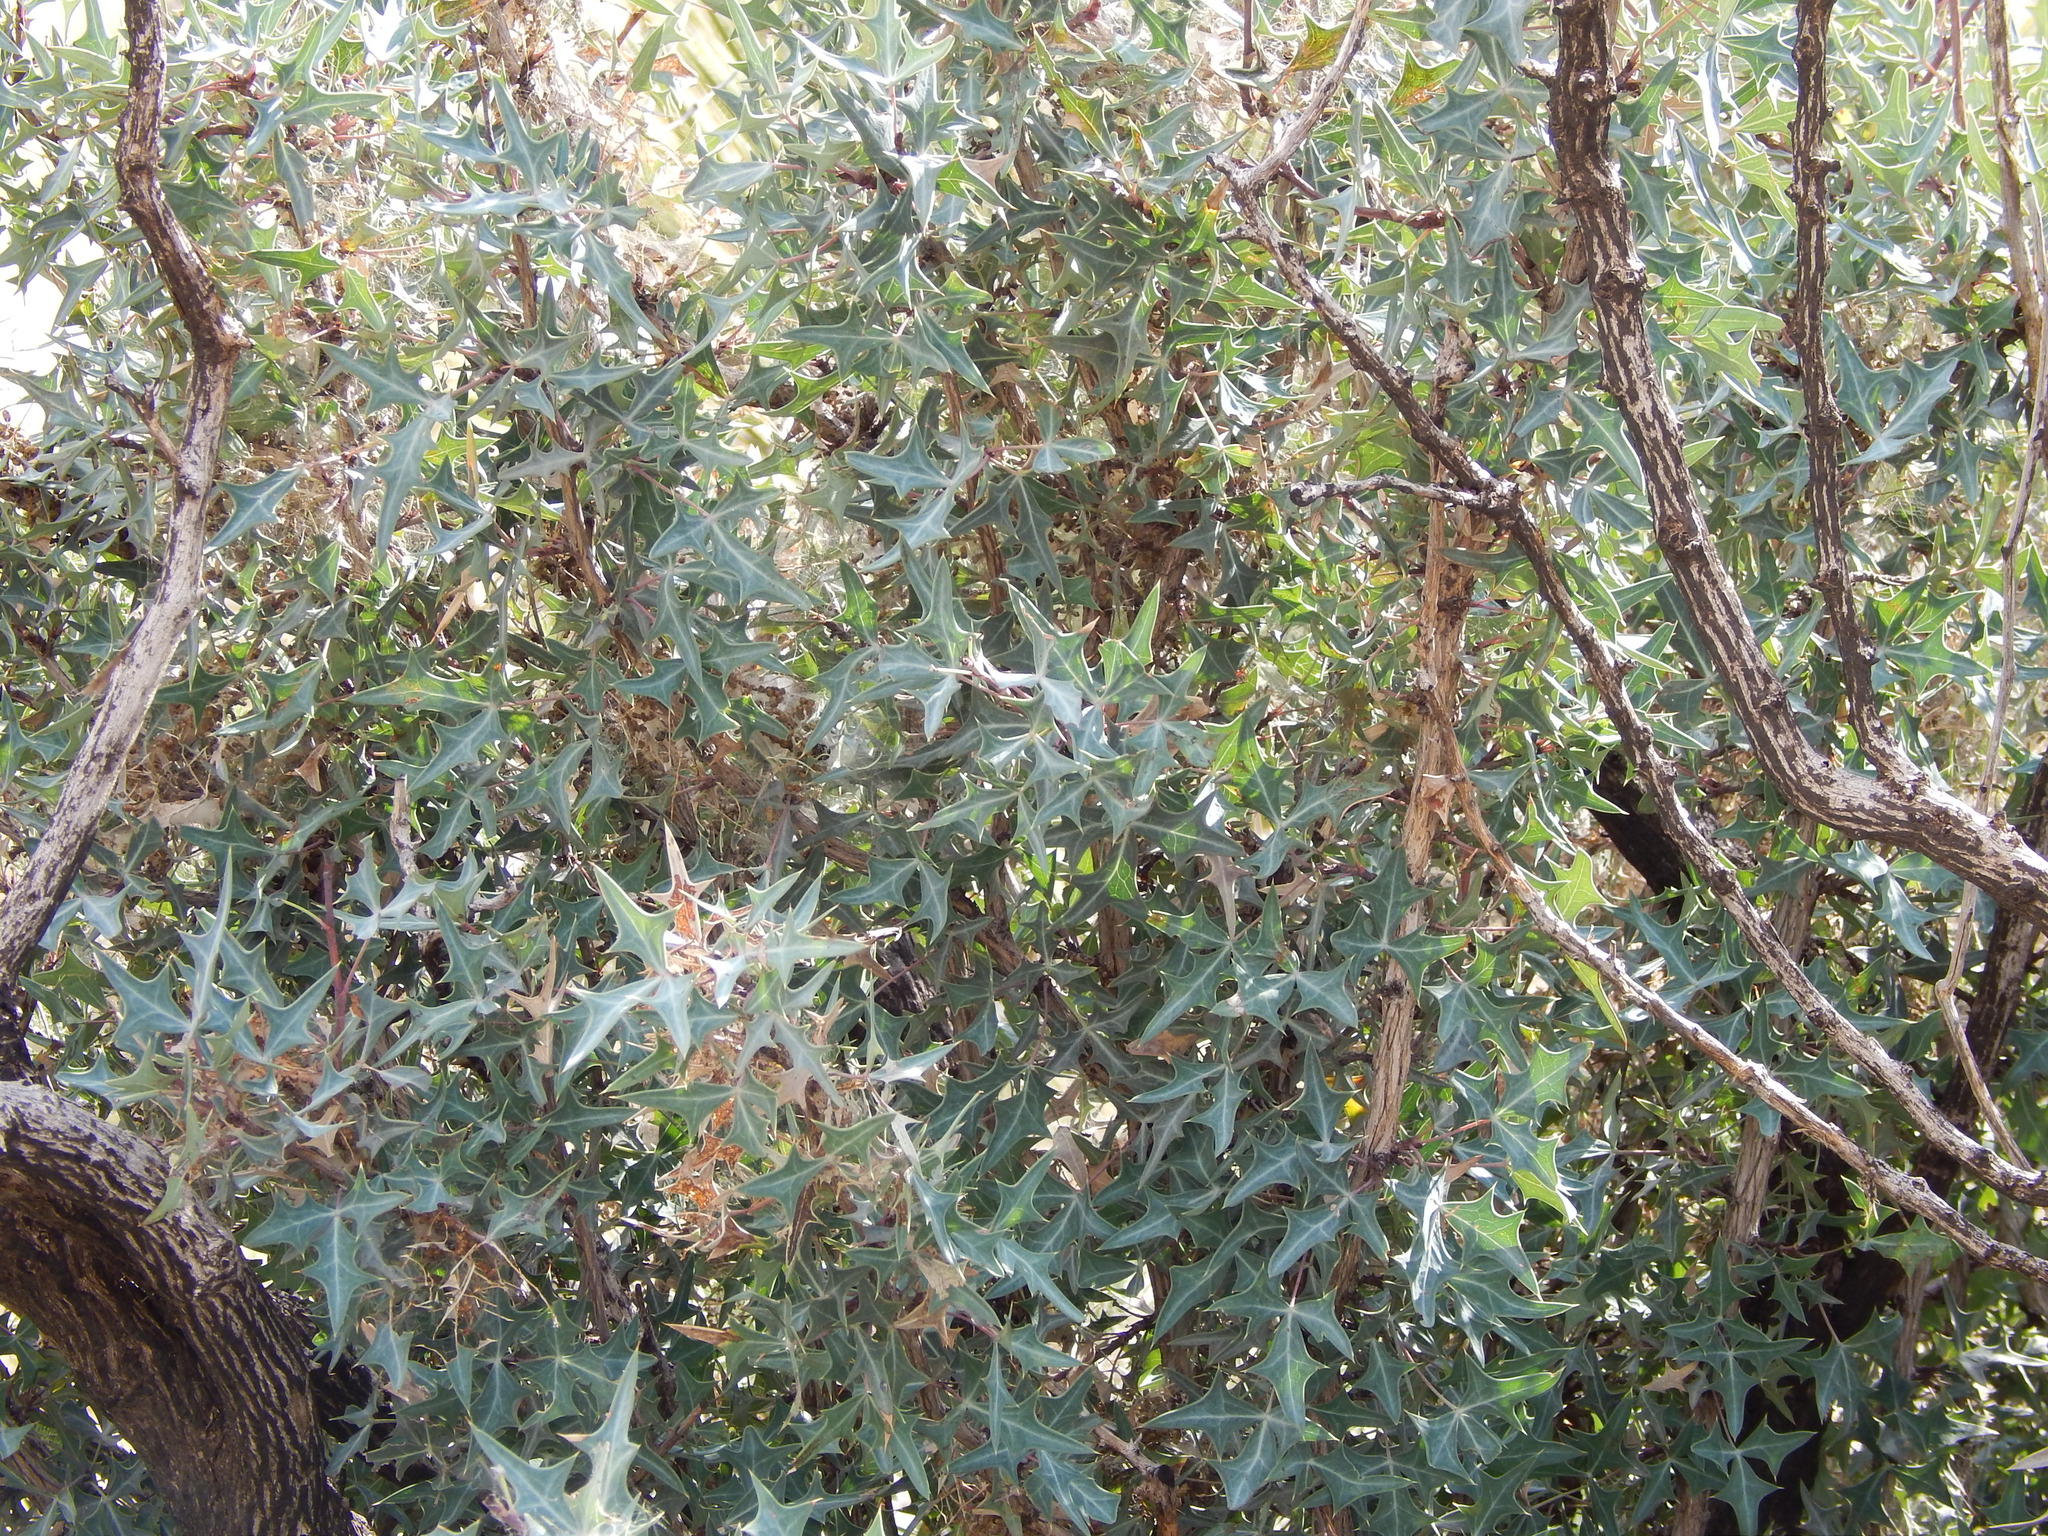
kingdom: Plantae
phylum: Tracheophyta
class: Magnoliopsida
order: Ranunculales
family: Berberidaceae
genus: Alloberberis
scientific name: Alloberberis trifoliolata
